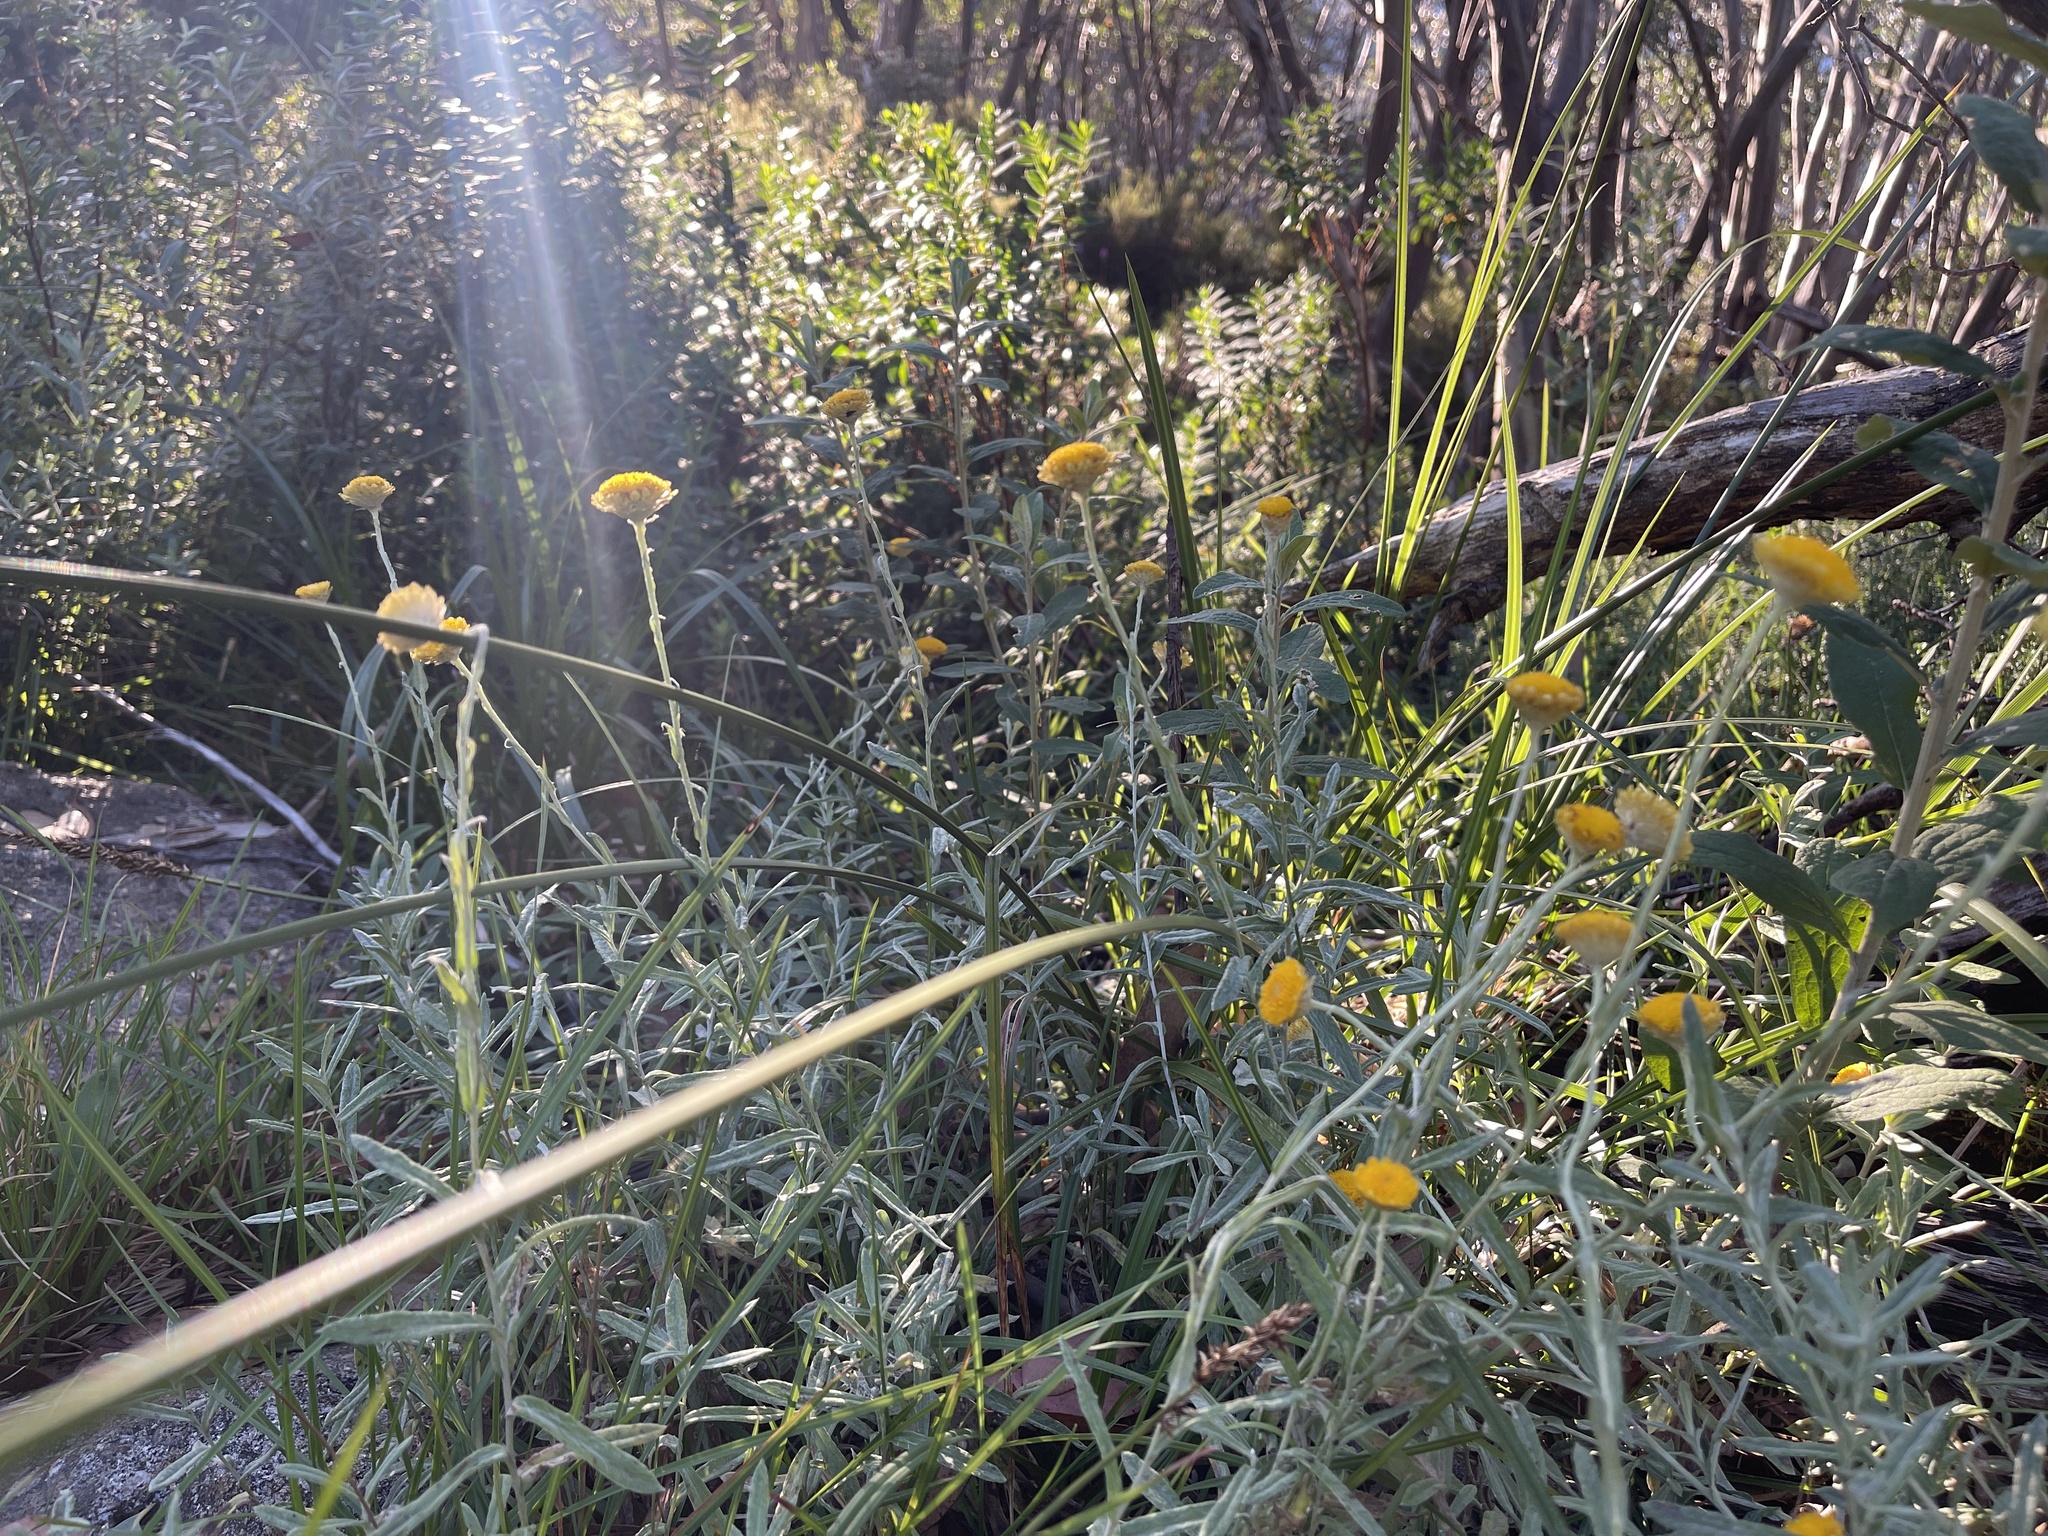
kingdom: Plantae
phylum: Tracheophyta
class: Magnoliopsida
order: Asterales
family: Asteraceae
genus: Coronidium
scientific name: Coronidium monticola
